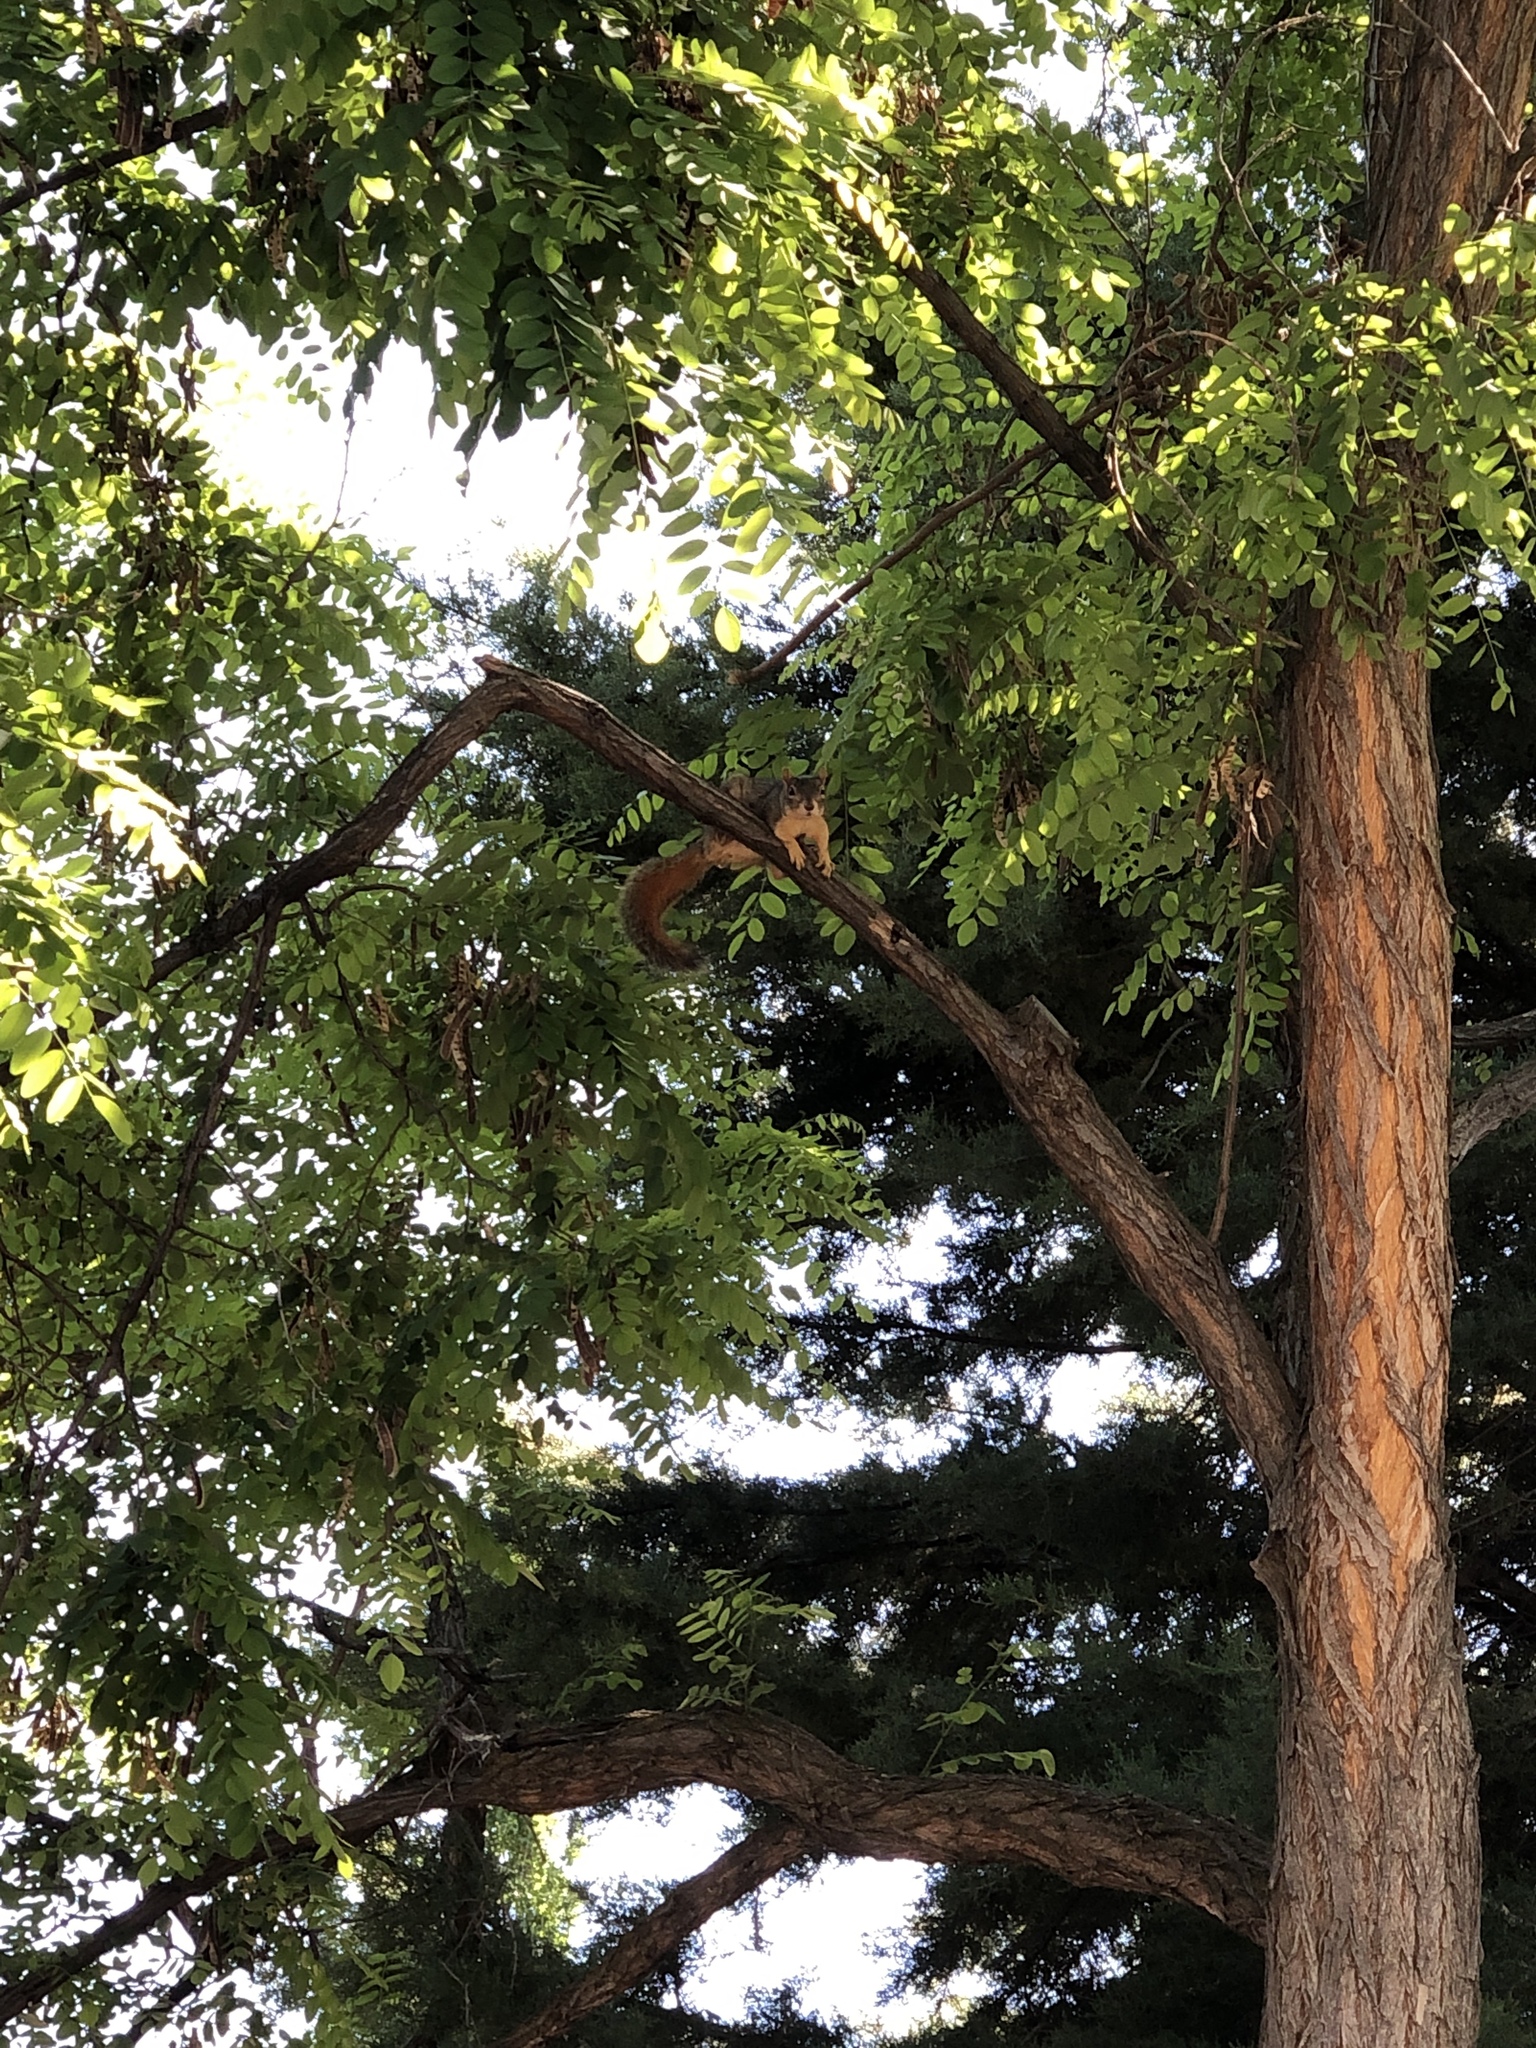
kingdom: Animalia
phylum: Chordata
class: Mammalia
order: Rodentia
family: Sciuridae
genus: Sciurus
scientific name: Sciurus niger
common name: Fox squirrel
